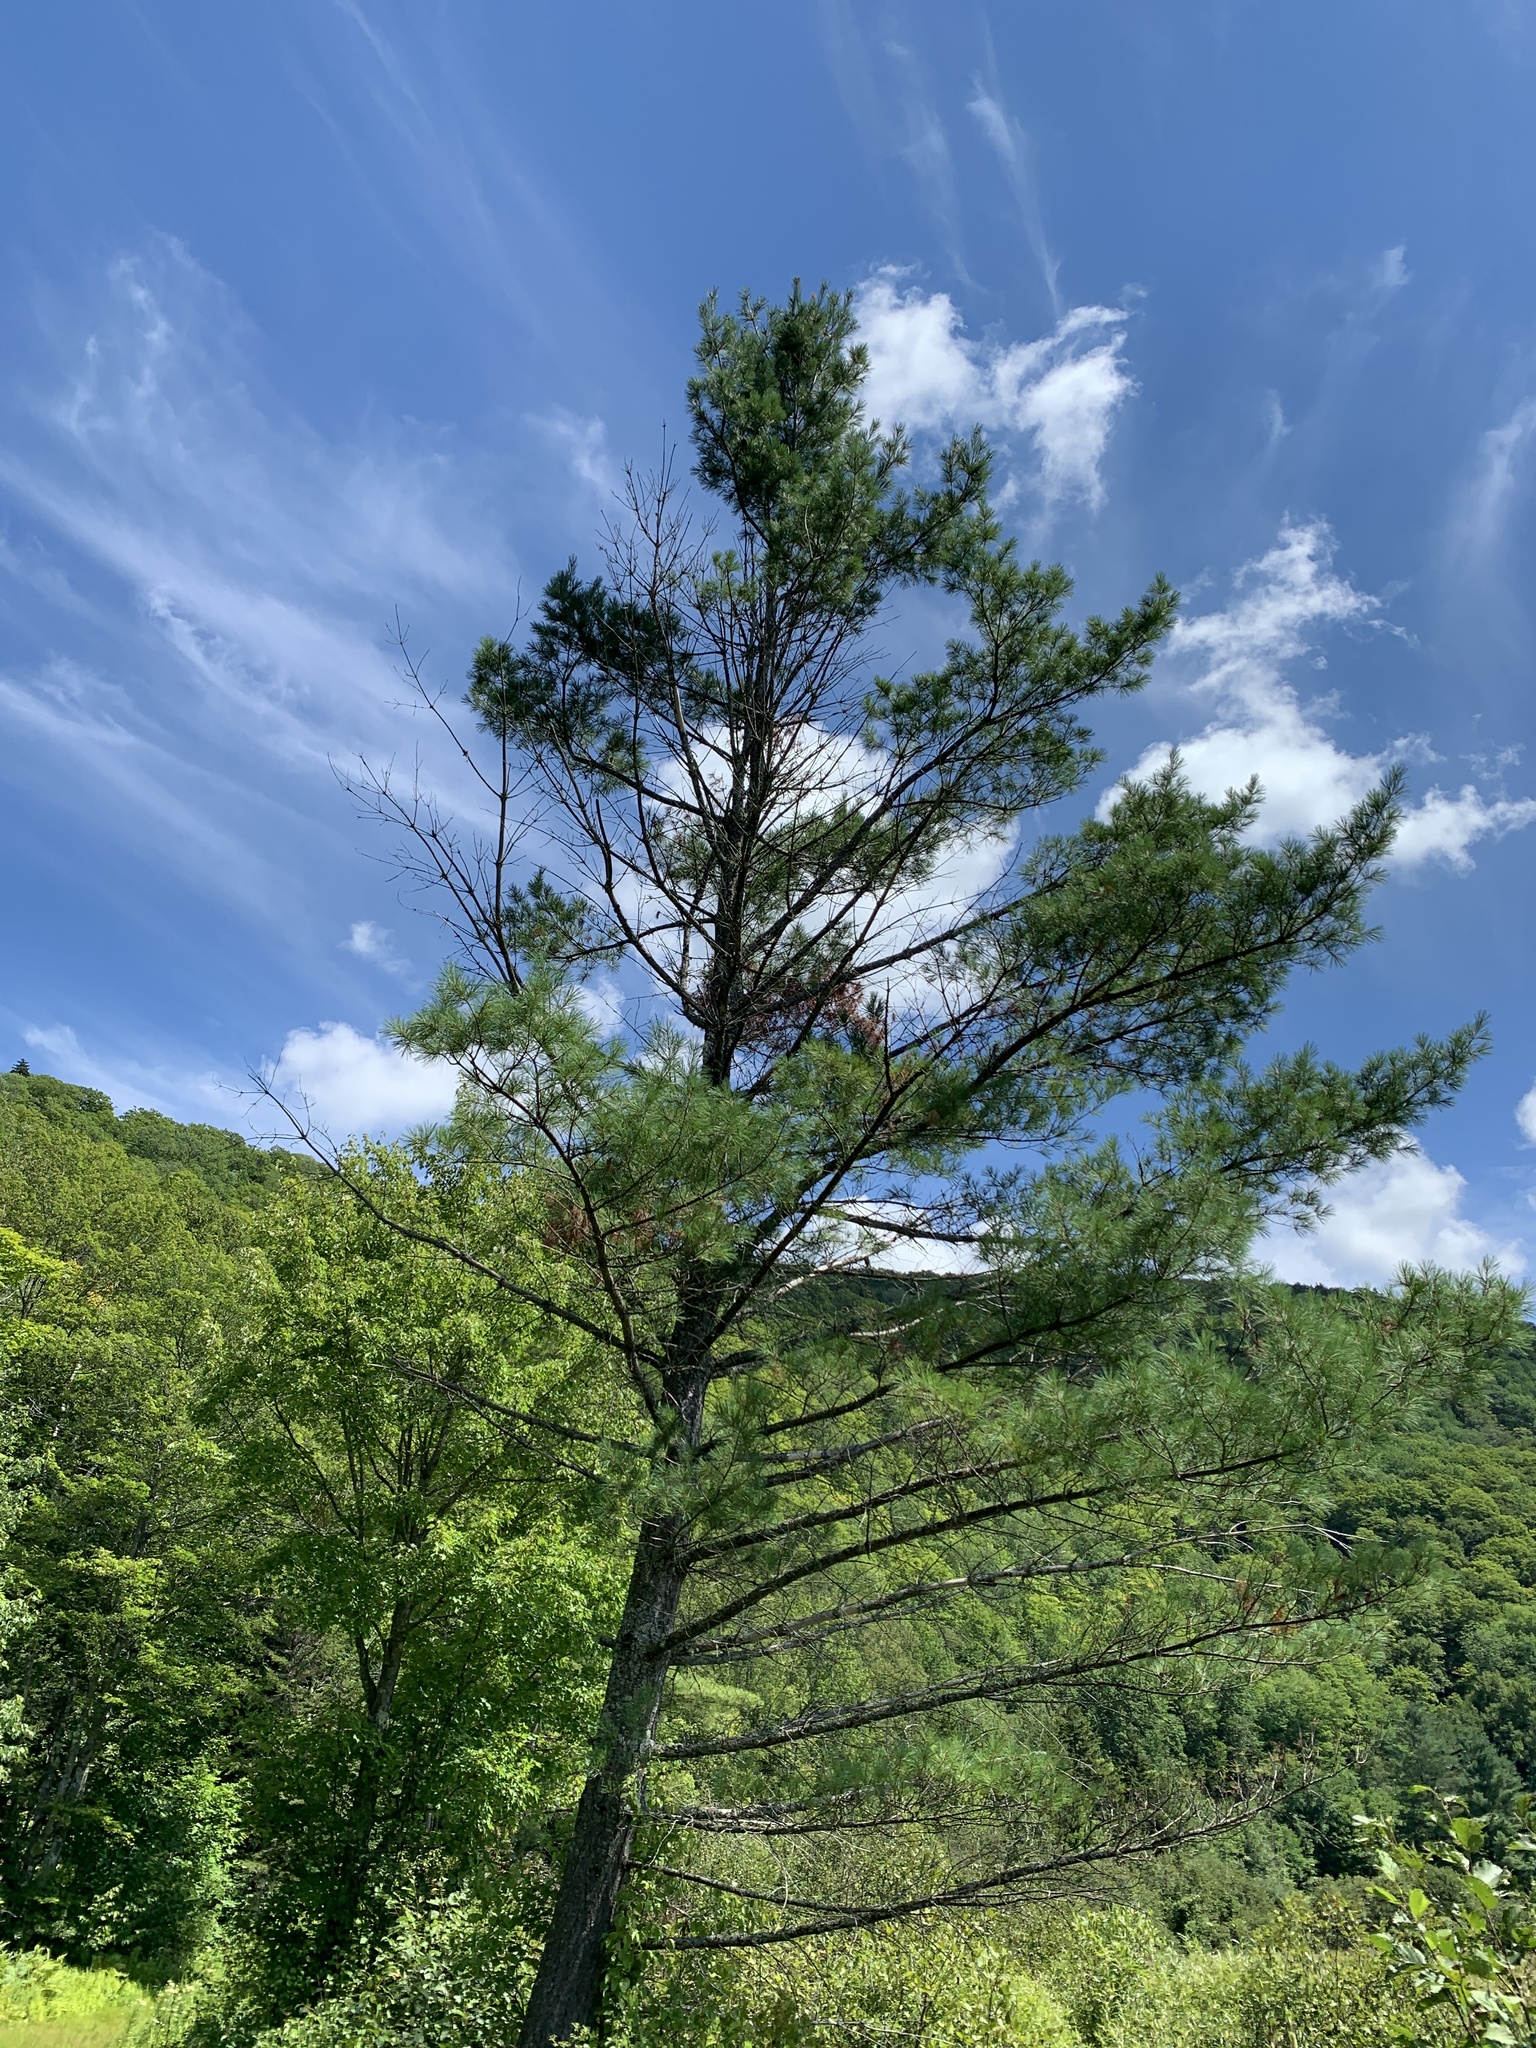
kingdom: Plantae
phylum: Tracheophyta
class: Pinopsida
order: Pinales
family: Pinaceae
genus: Pinus
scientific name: Pinus strobus
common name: Weymouth pine
